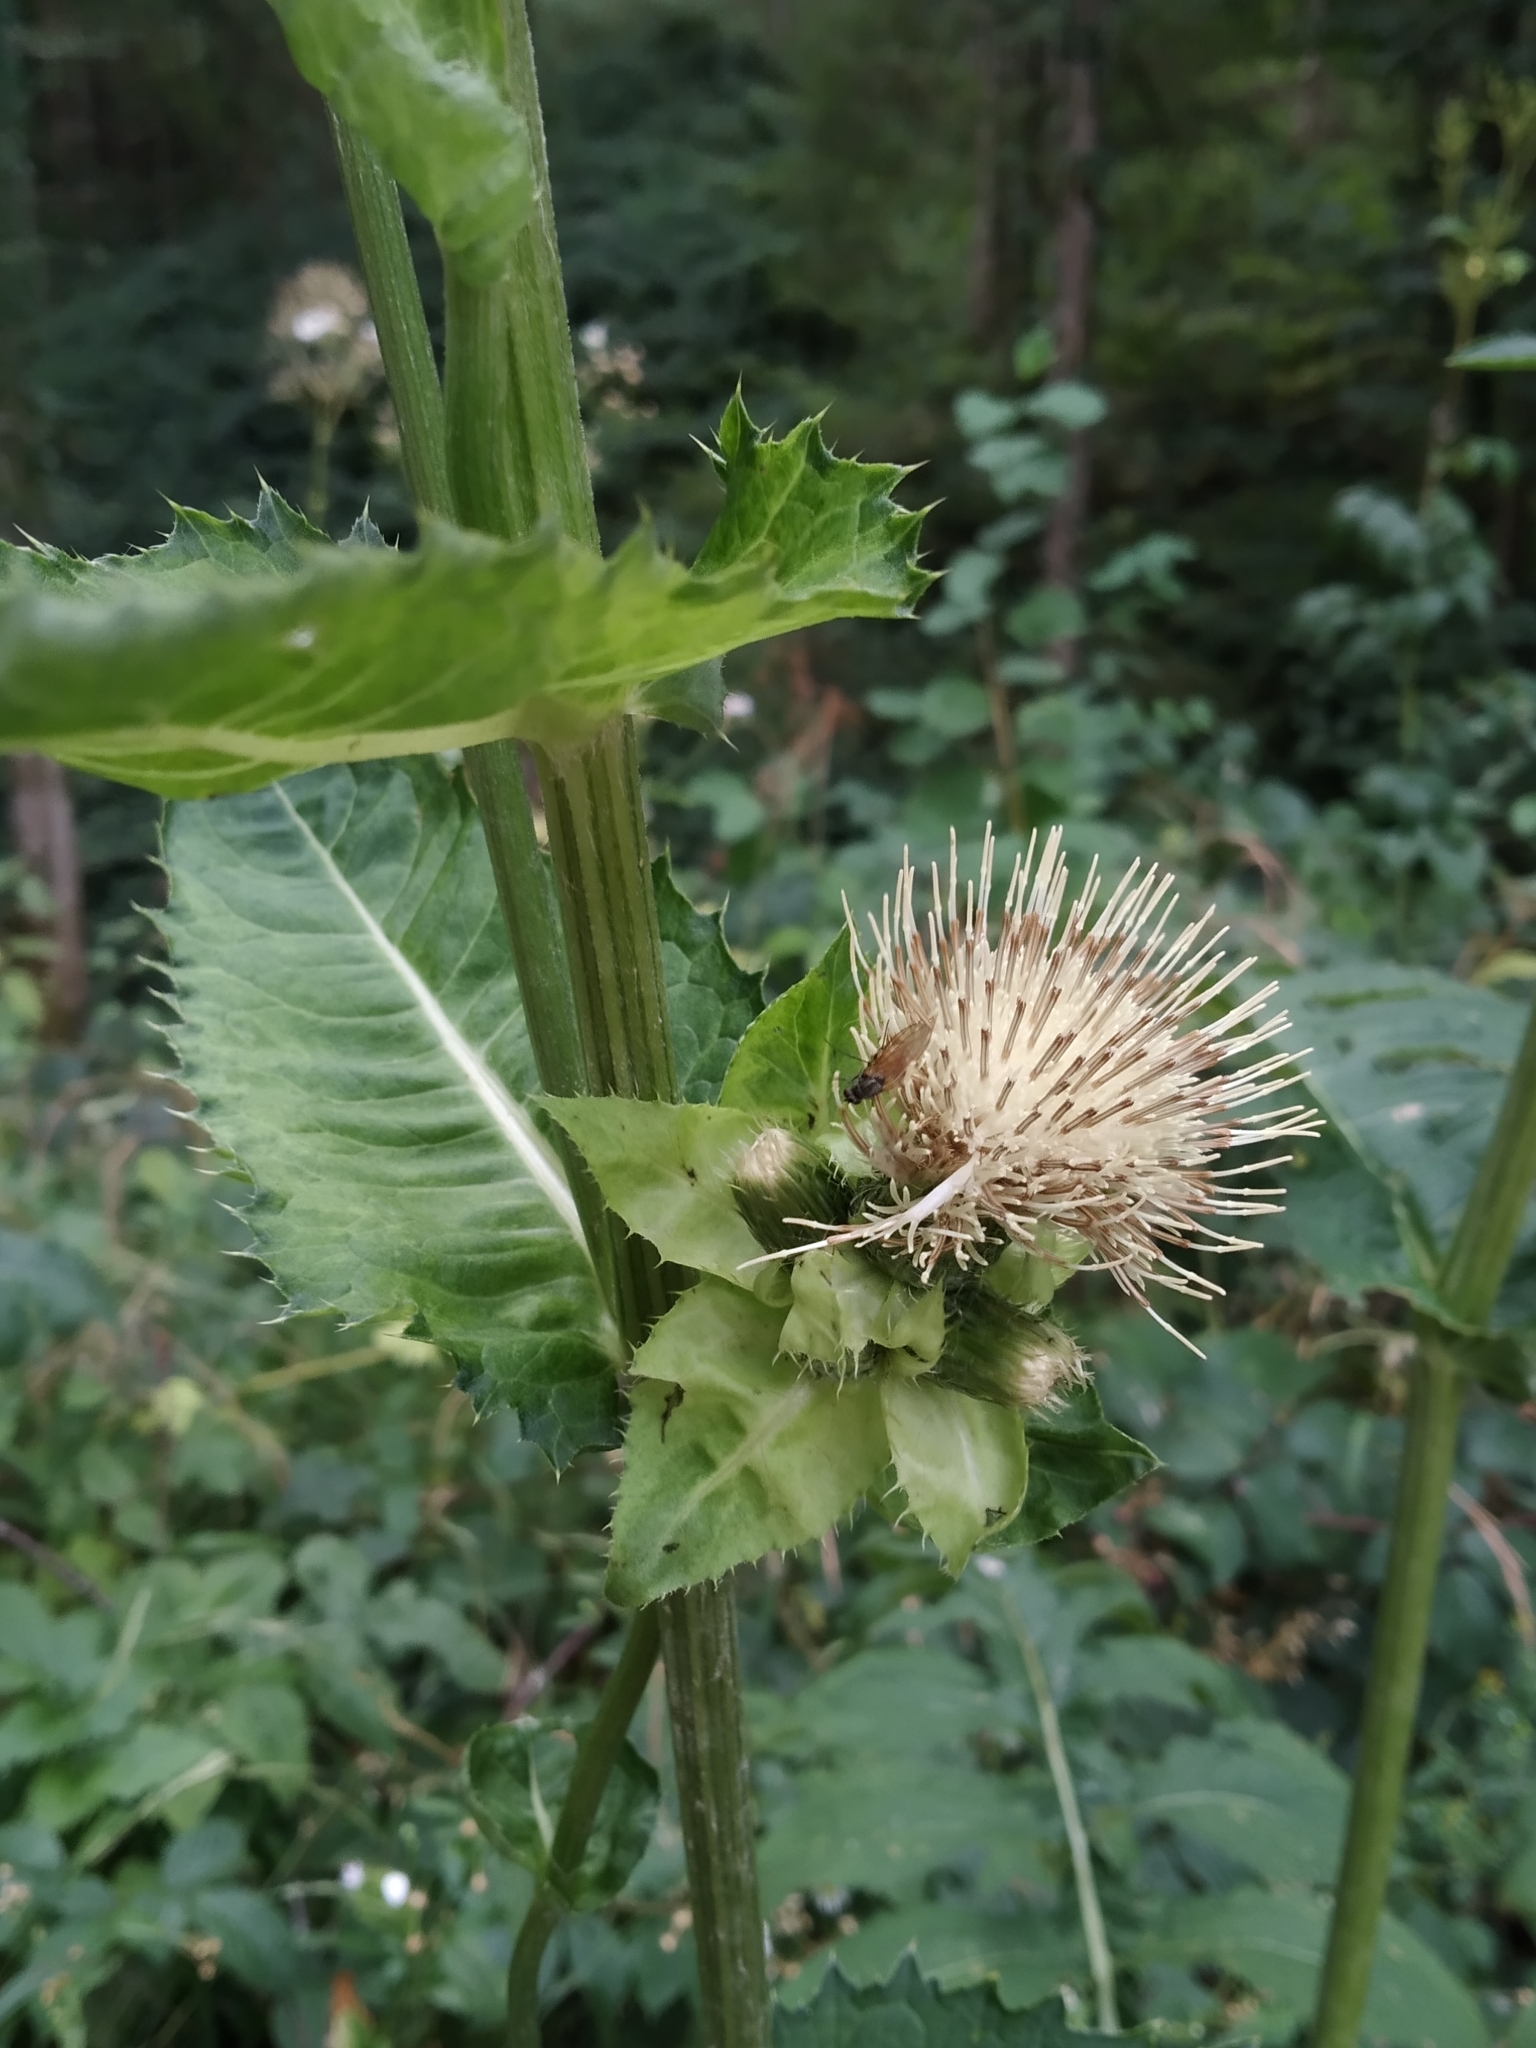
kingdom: Plantae
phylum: Tracheophyta
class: Magnoliopsida
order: Asterales
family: Asteraceae
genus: Cirsium
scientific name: Cirsium oleraceum
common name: Cabbage thistle
